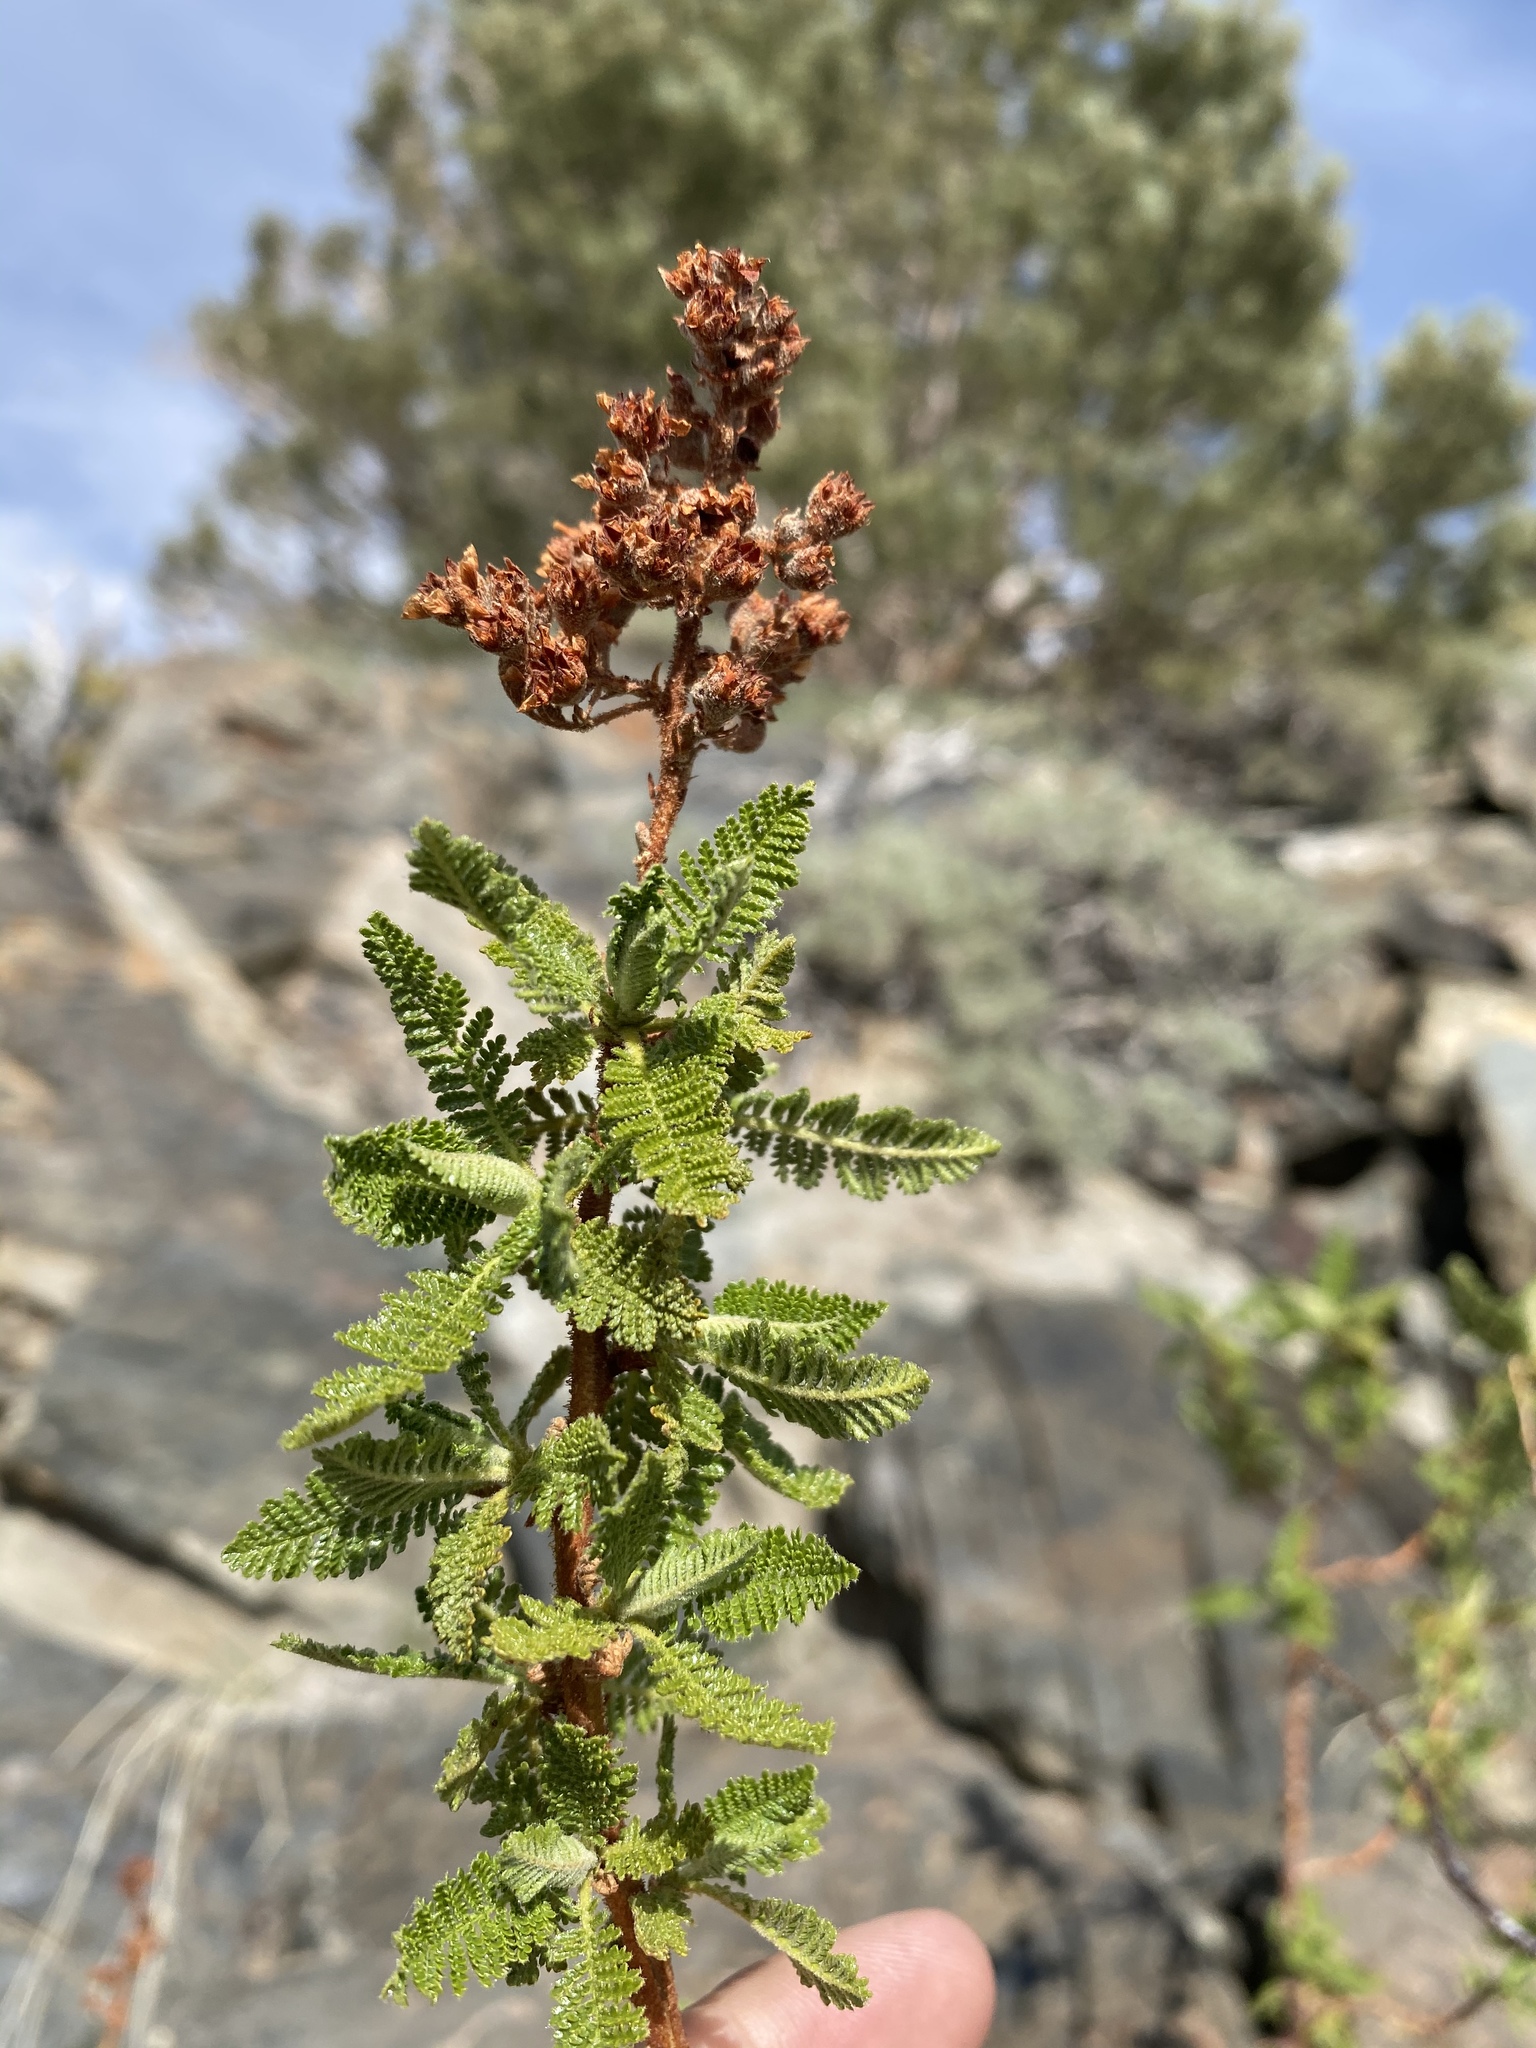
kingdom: Plantae
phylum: Tracheophyta
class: Magnoliopsida
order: Rosales
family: Rosaceae
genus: Chamaebatiaria
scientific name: Chamaebatiaria millefolium
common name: Fernbush
